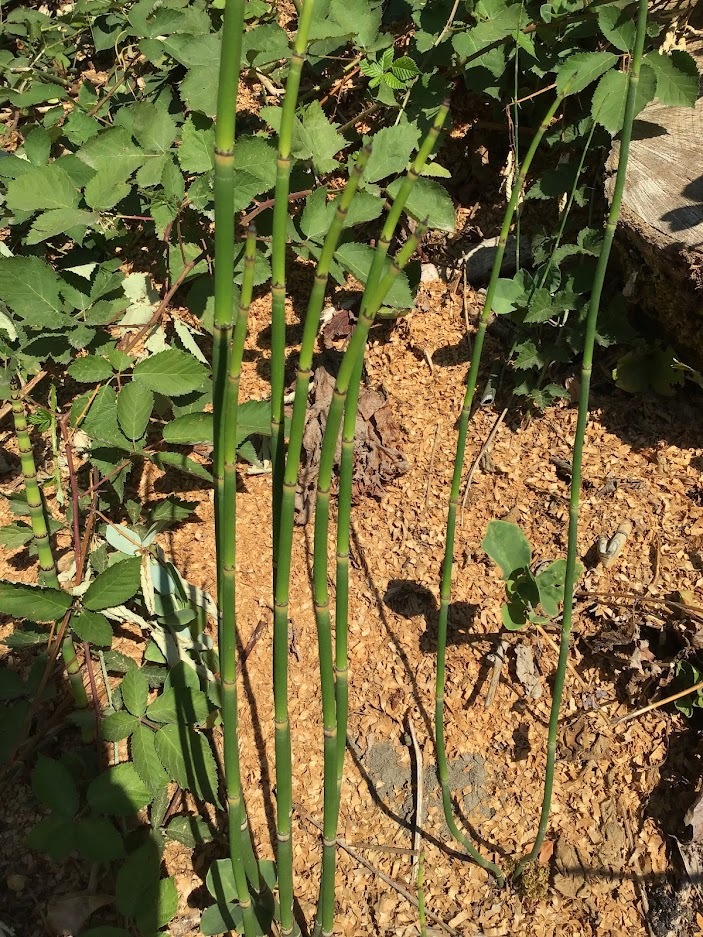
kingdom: Plantae
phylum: Tracheophyta
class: Polypodiopsida
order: Equisetales
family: Equisetaceae
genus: Equisetum
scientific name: Equisetum hyemale
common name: Rough horsetail
